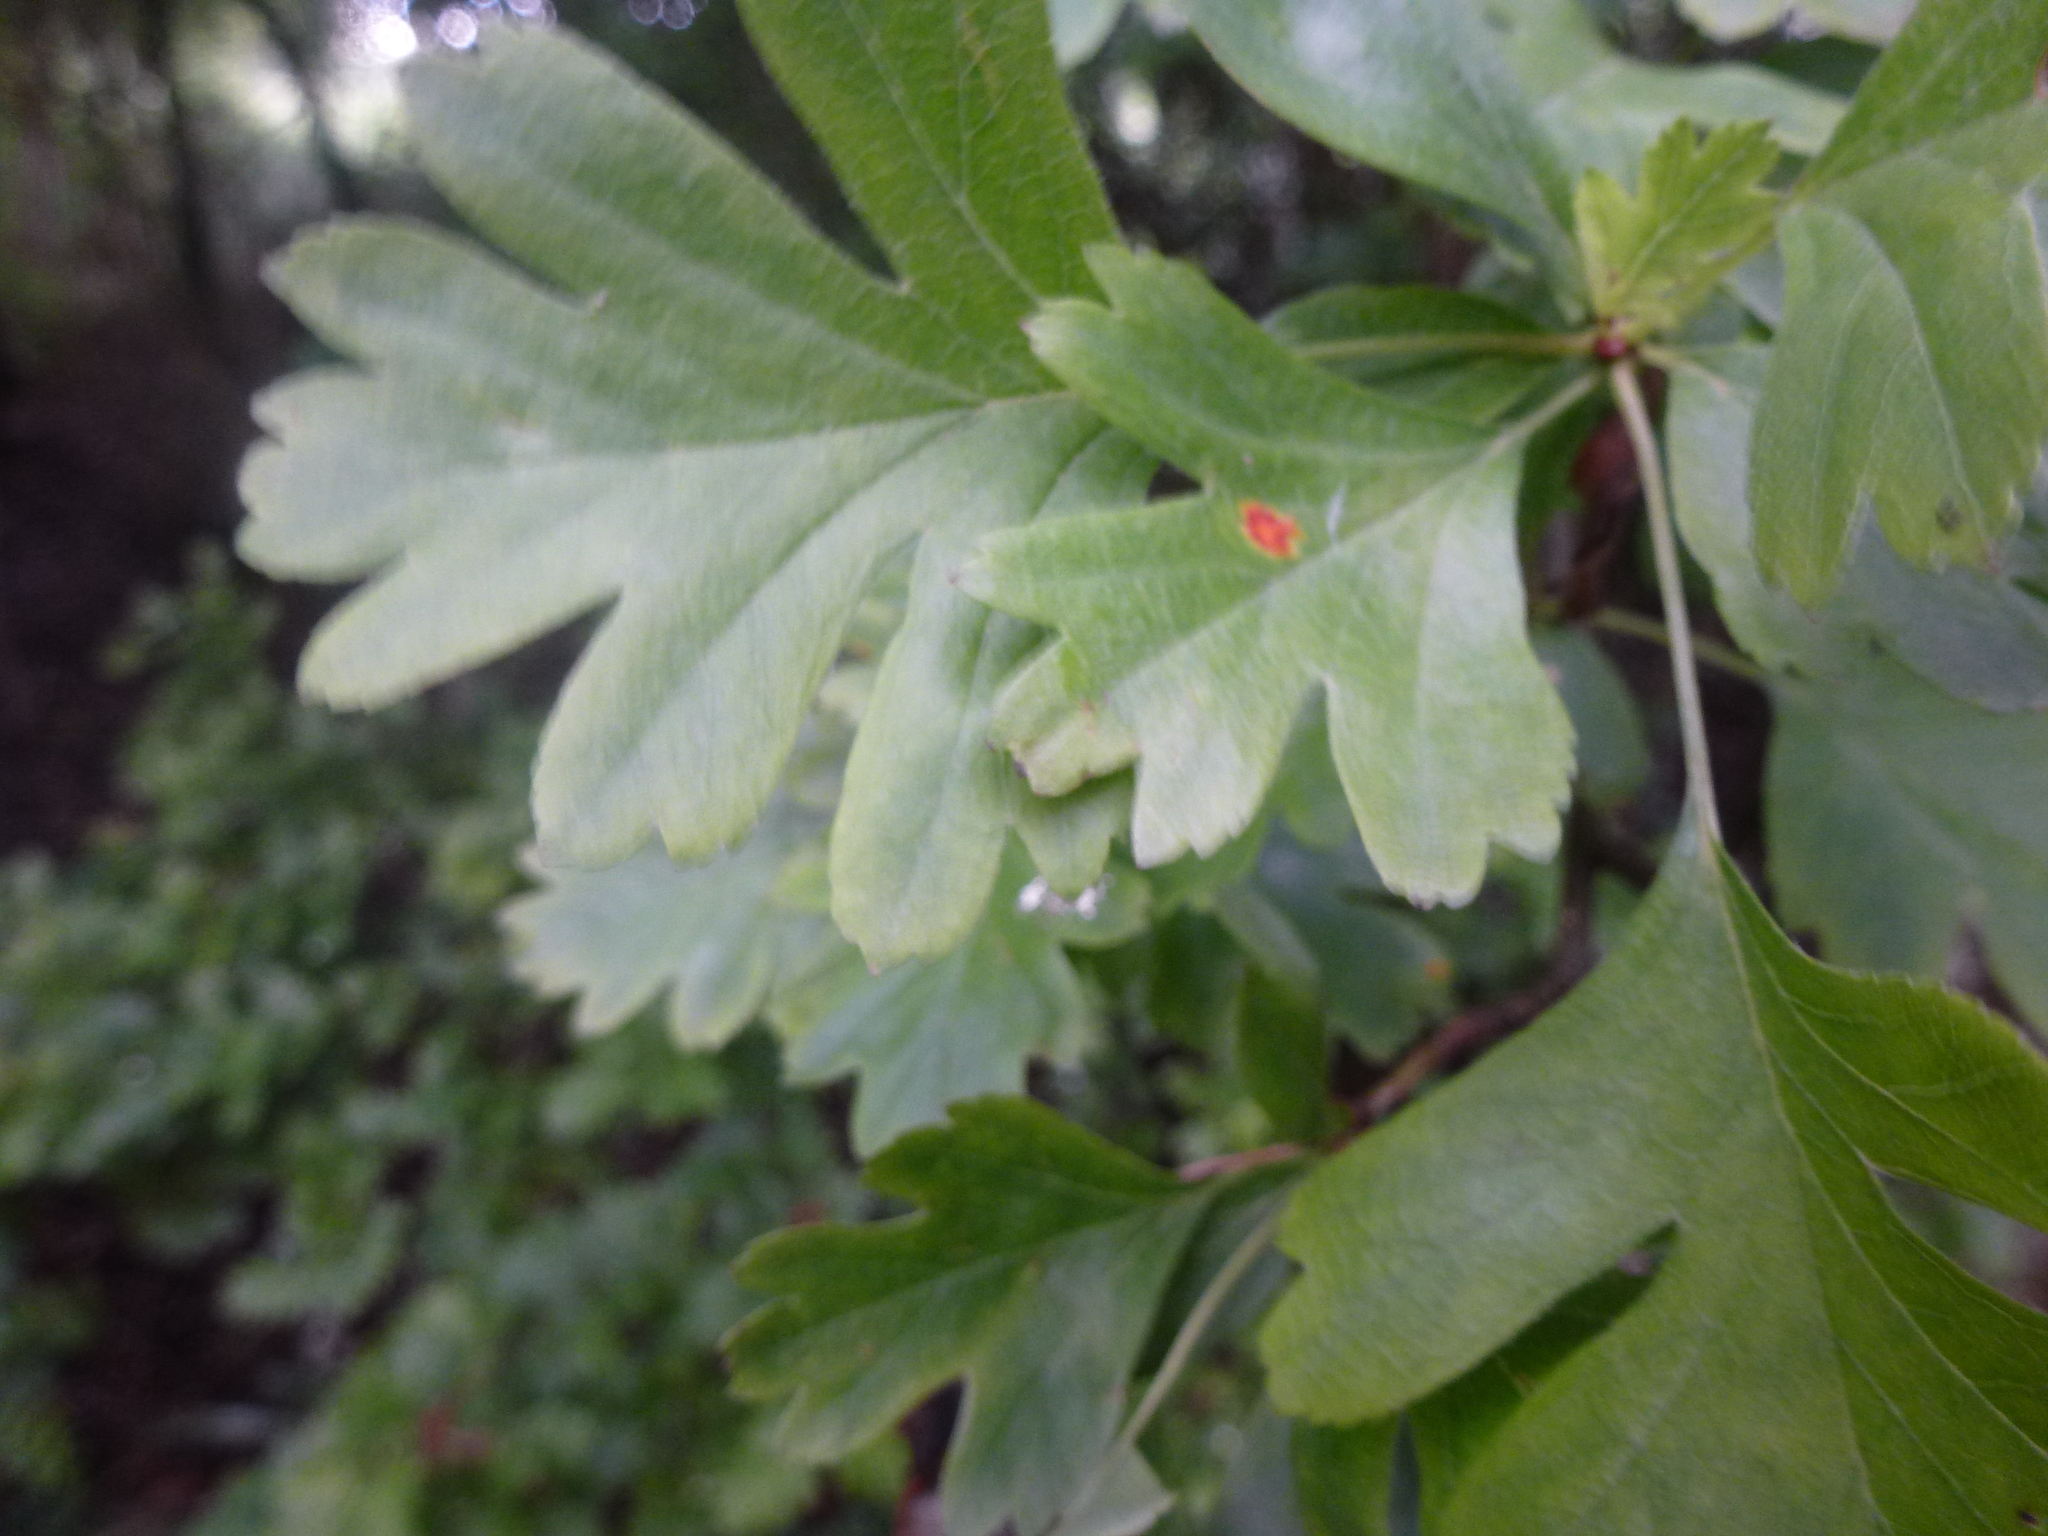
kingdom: Fungi
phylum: Basidiomycota
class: Pucciniomycetes
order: Pucciniales
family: Gymnosporangiaceae
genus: Gymnosporangium
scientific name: Gymnosporangium clavariiforme
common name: Tongues of fire
